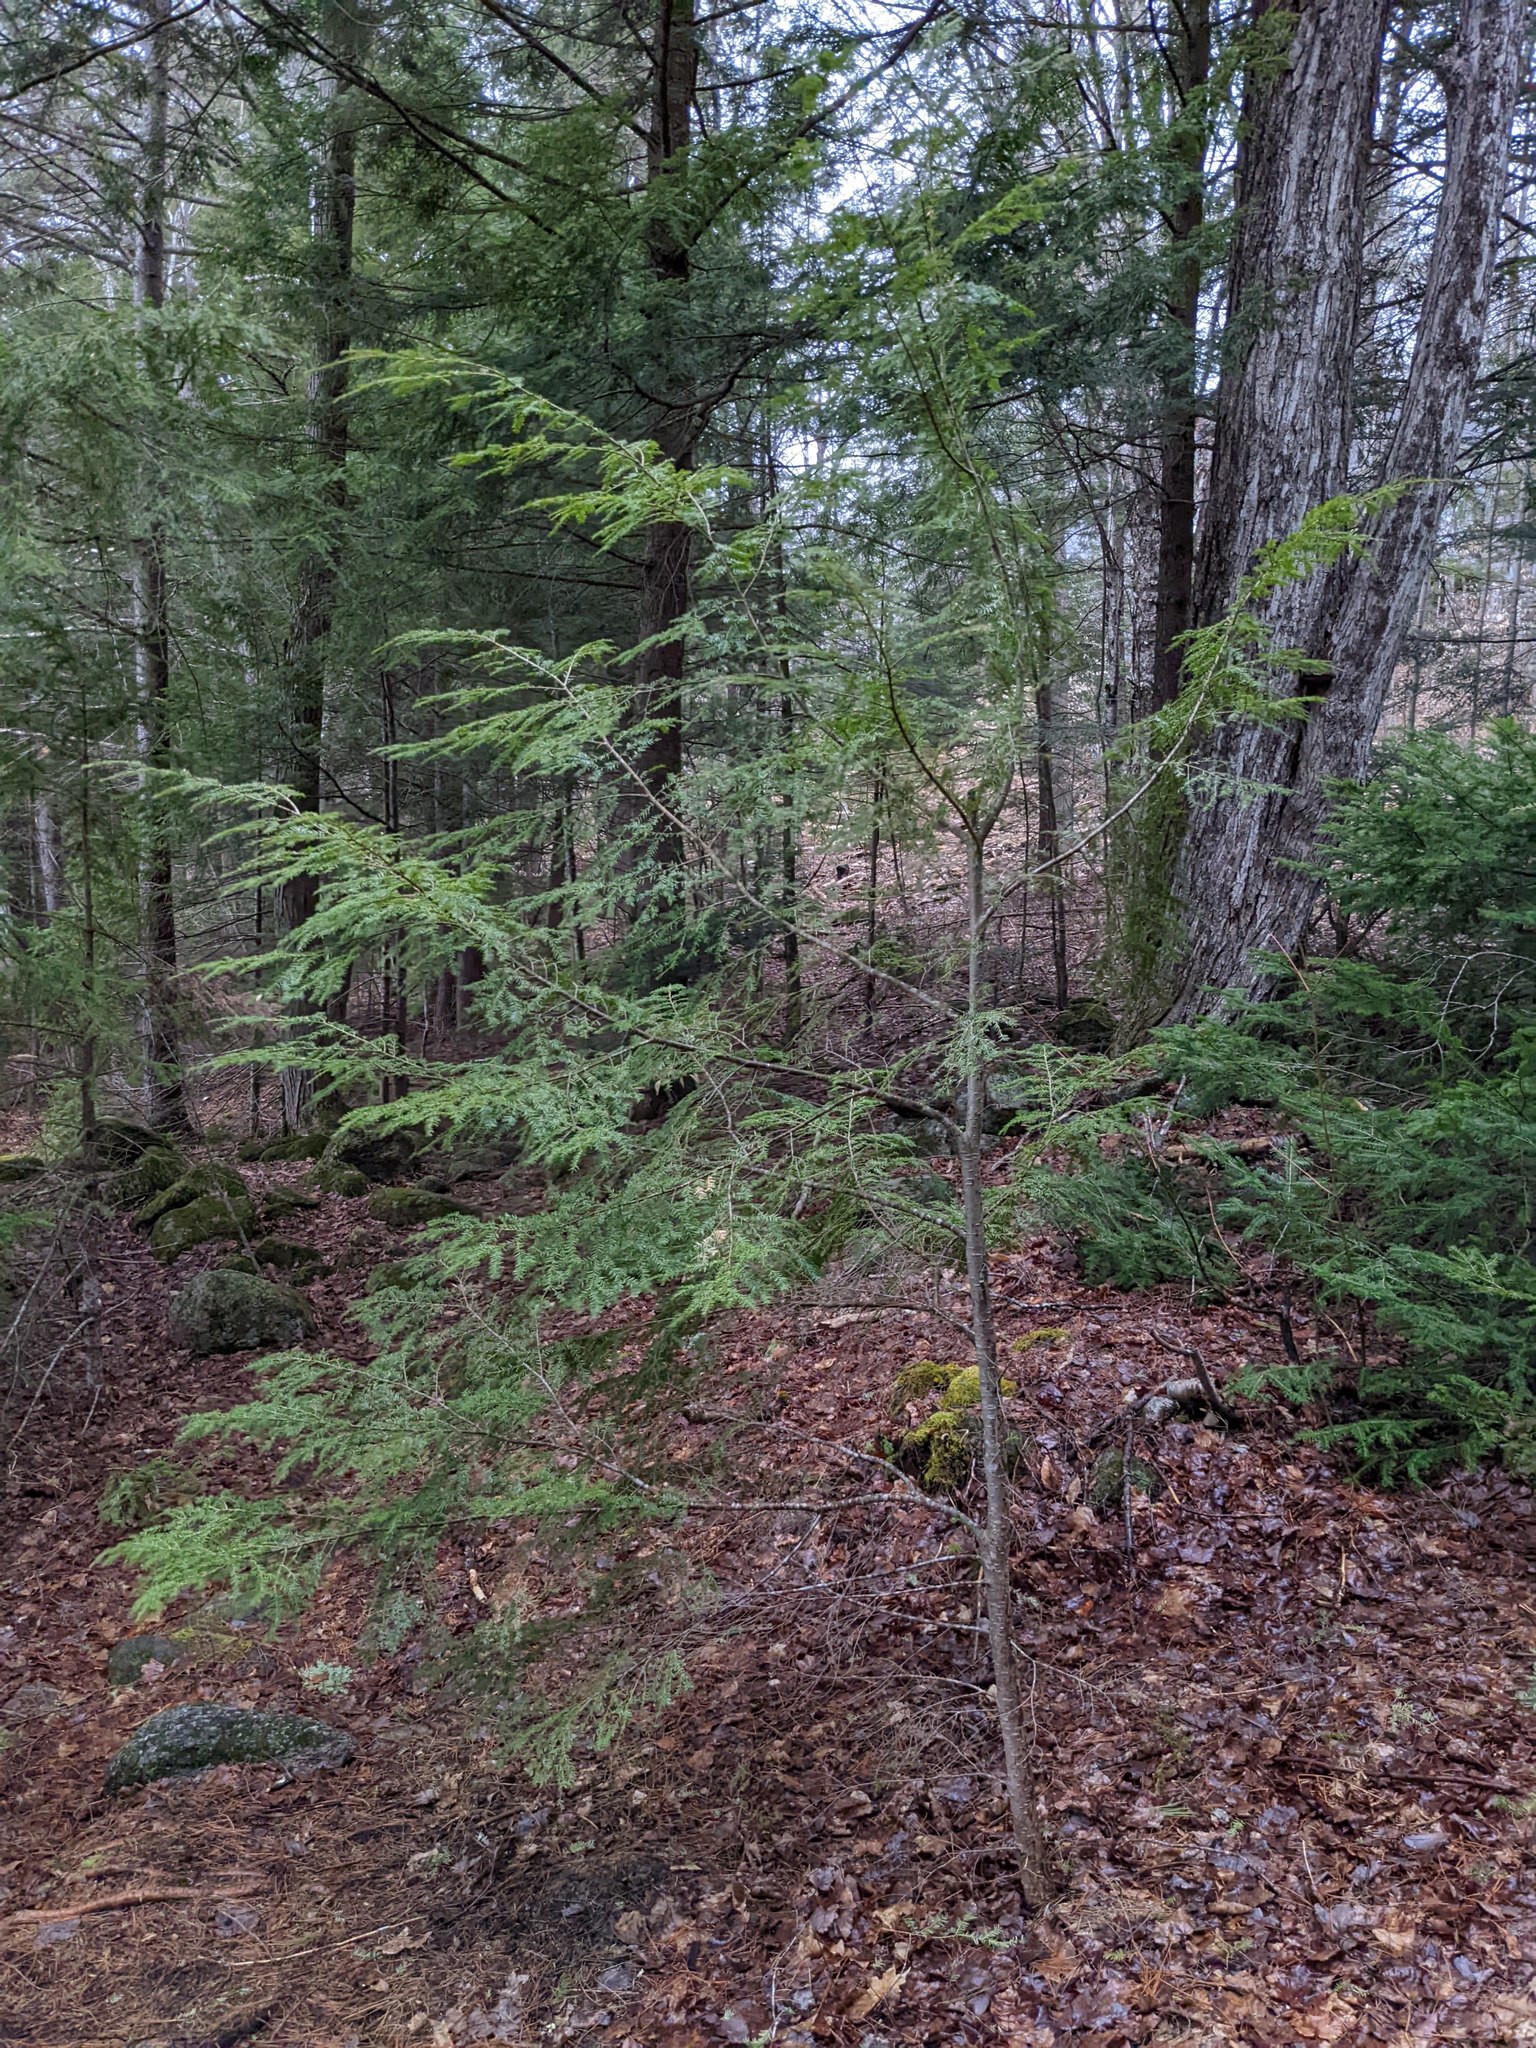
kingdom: Plantae
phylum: Tracheophyta
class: Pinopsida
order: Pinales
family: Pinaceae
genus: Tsuga
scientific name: Tsuga canadensis
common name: Eastern hemlock
